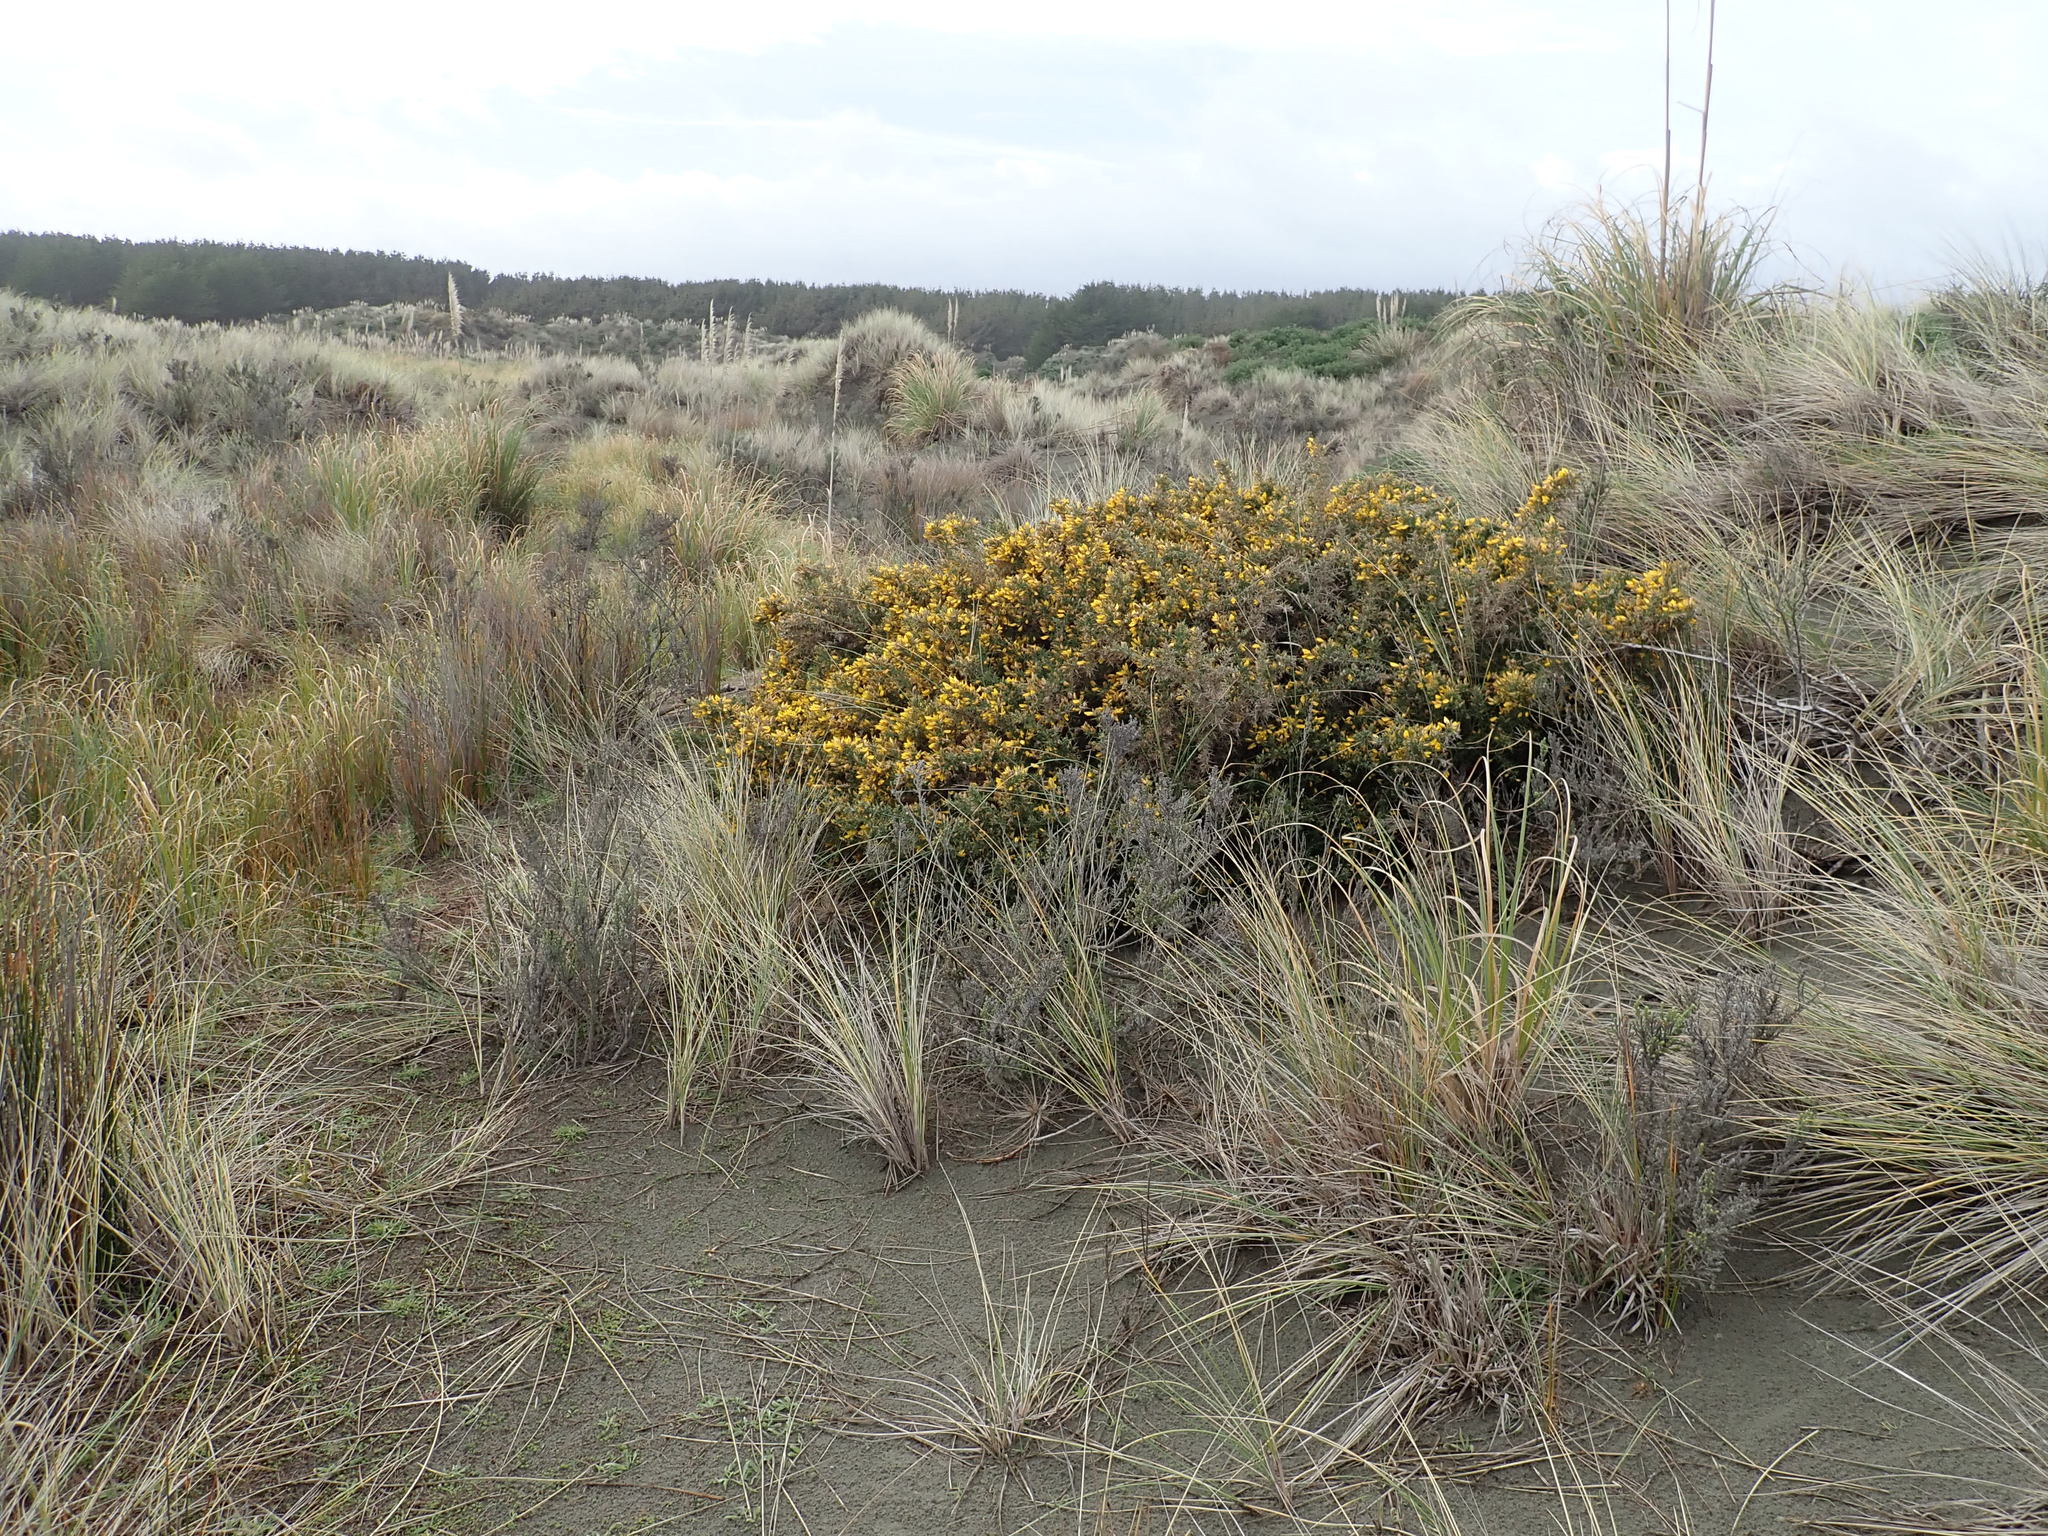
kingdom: Plantae
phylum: Tracheophyta
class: Magnoliopsida
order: Fabales
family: Fabaceae
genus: Ulex
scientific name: Ulex europaeus
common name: Common gorse
